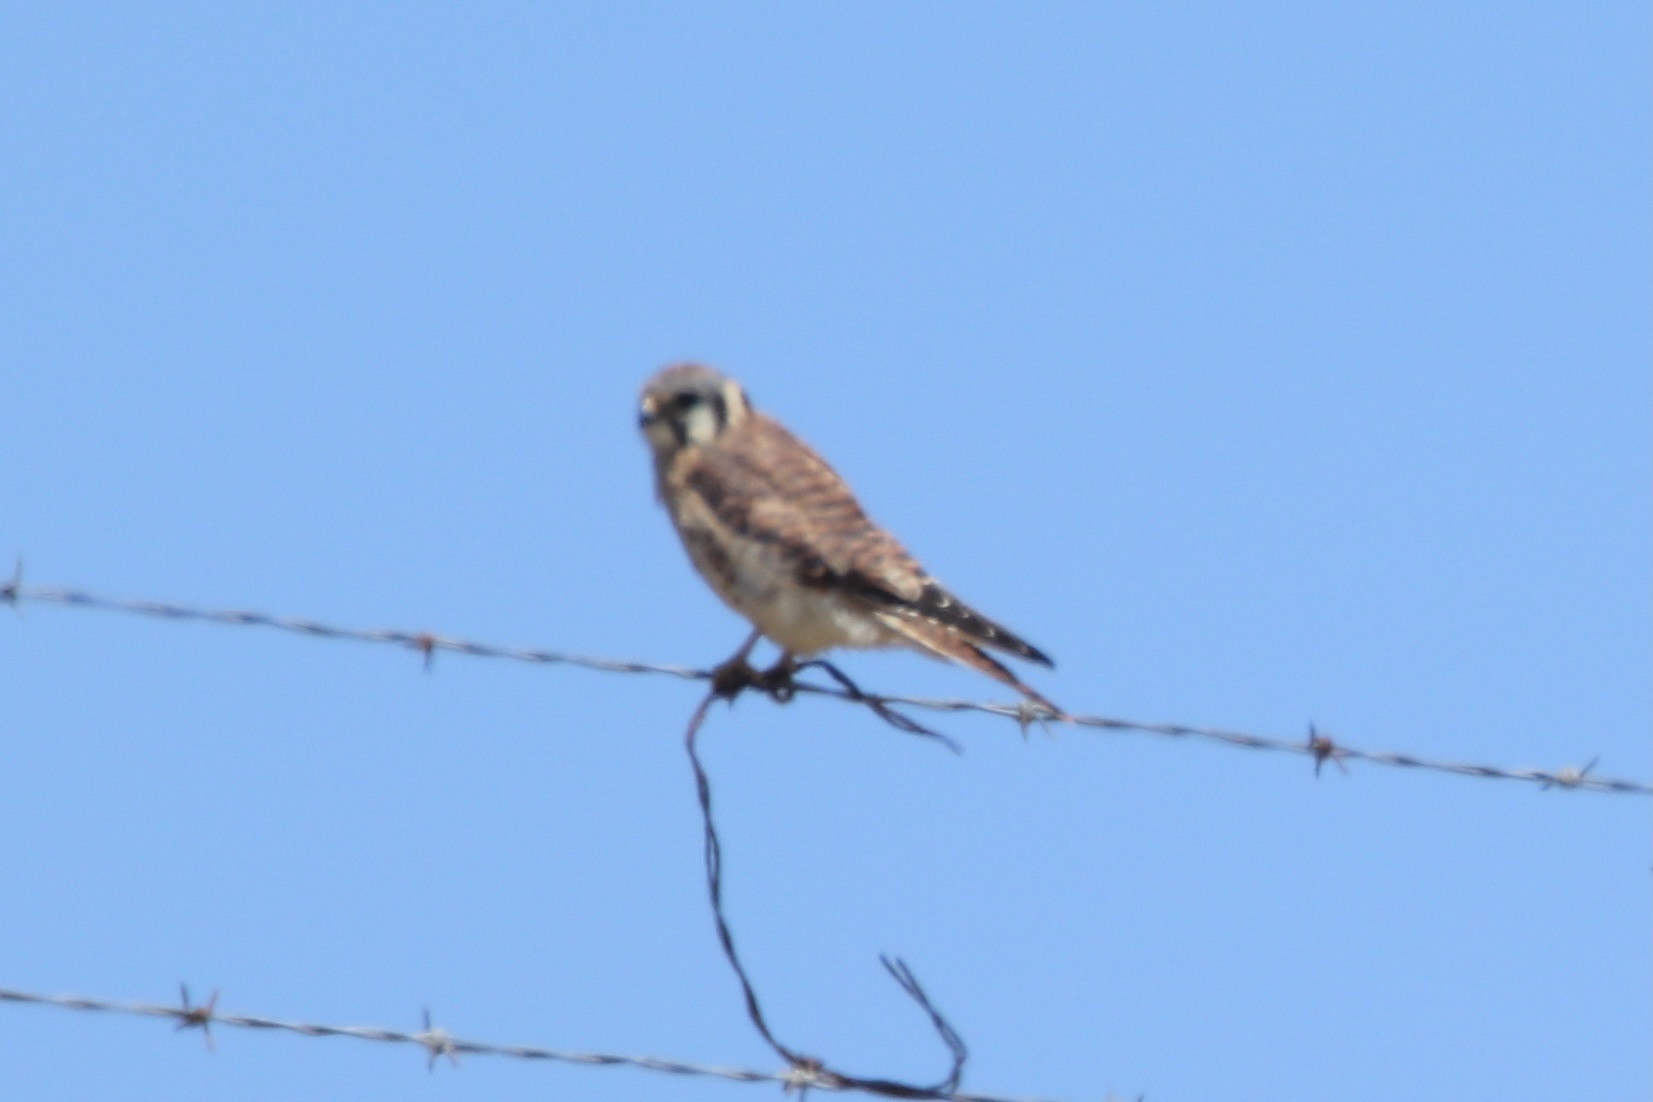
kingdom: Animalia
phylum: Chordata
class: Aves
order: Falconiformes
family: Falconidae
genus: Falco
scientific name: Falco sparverius
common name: American kestrel
